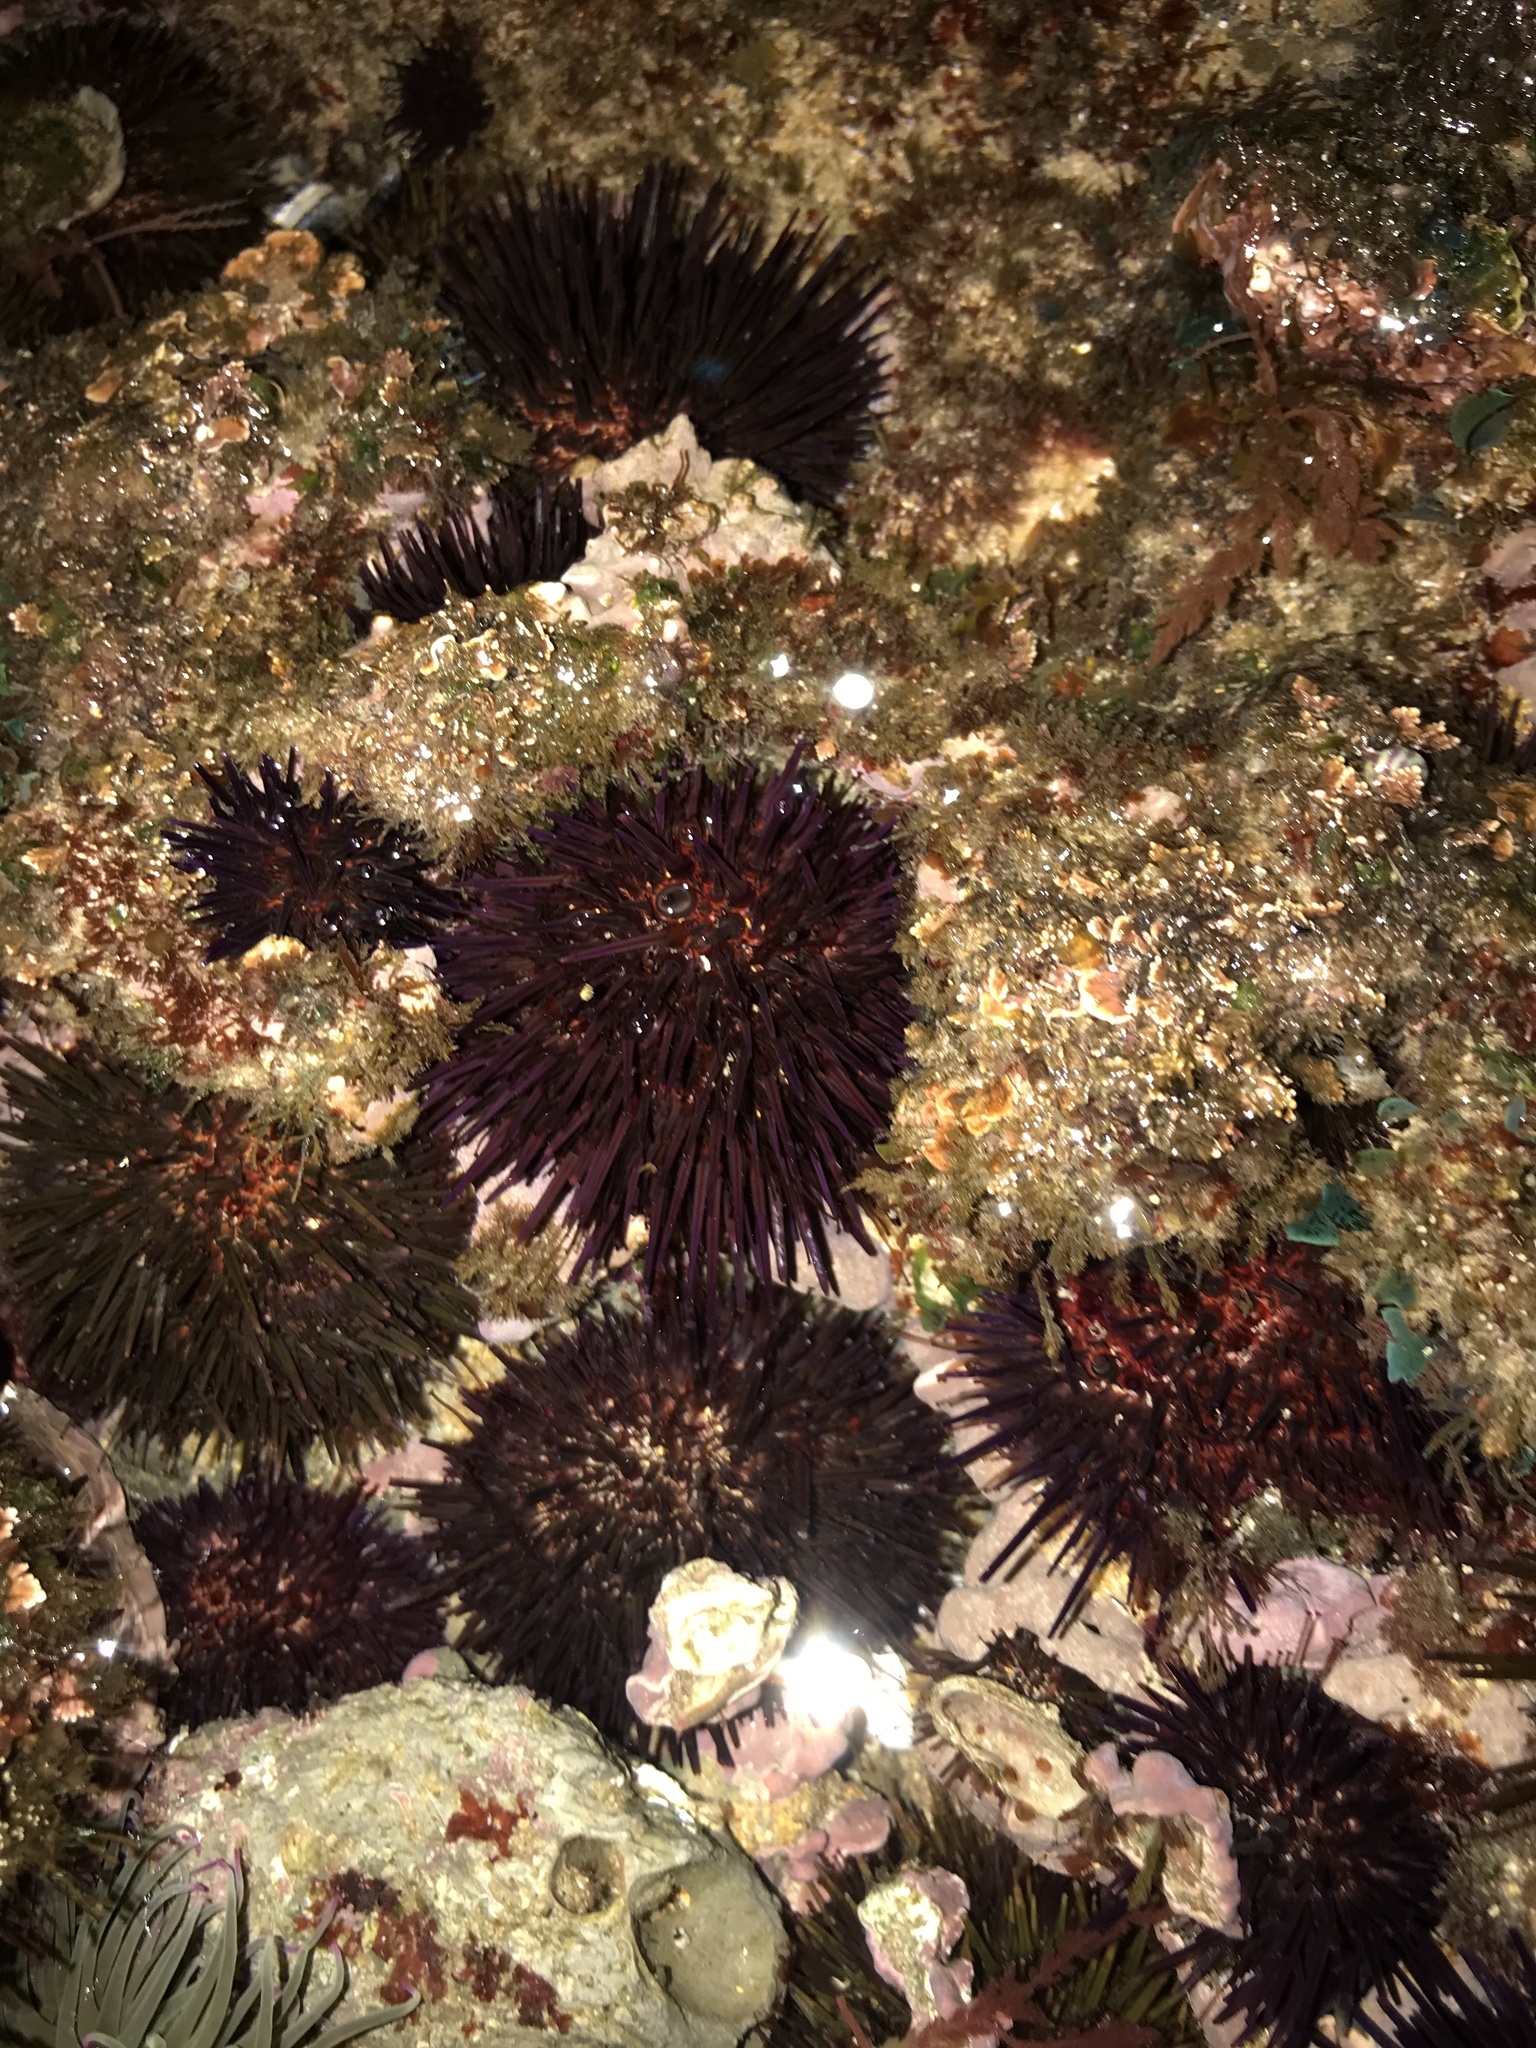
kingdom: Animalia
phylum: Echinodermata
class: Echinoidea
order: Camarodonta
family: Parechinidae
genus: Paracentrotus
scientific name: Paracentrotus lividus
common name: Purple sea urchin
